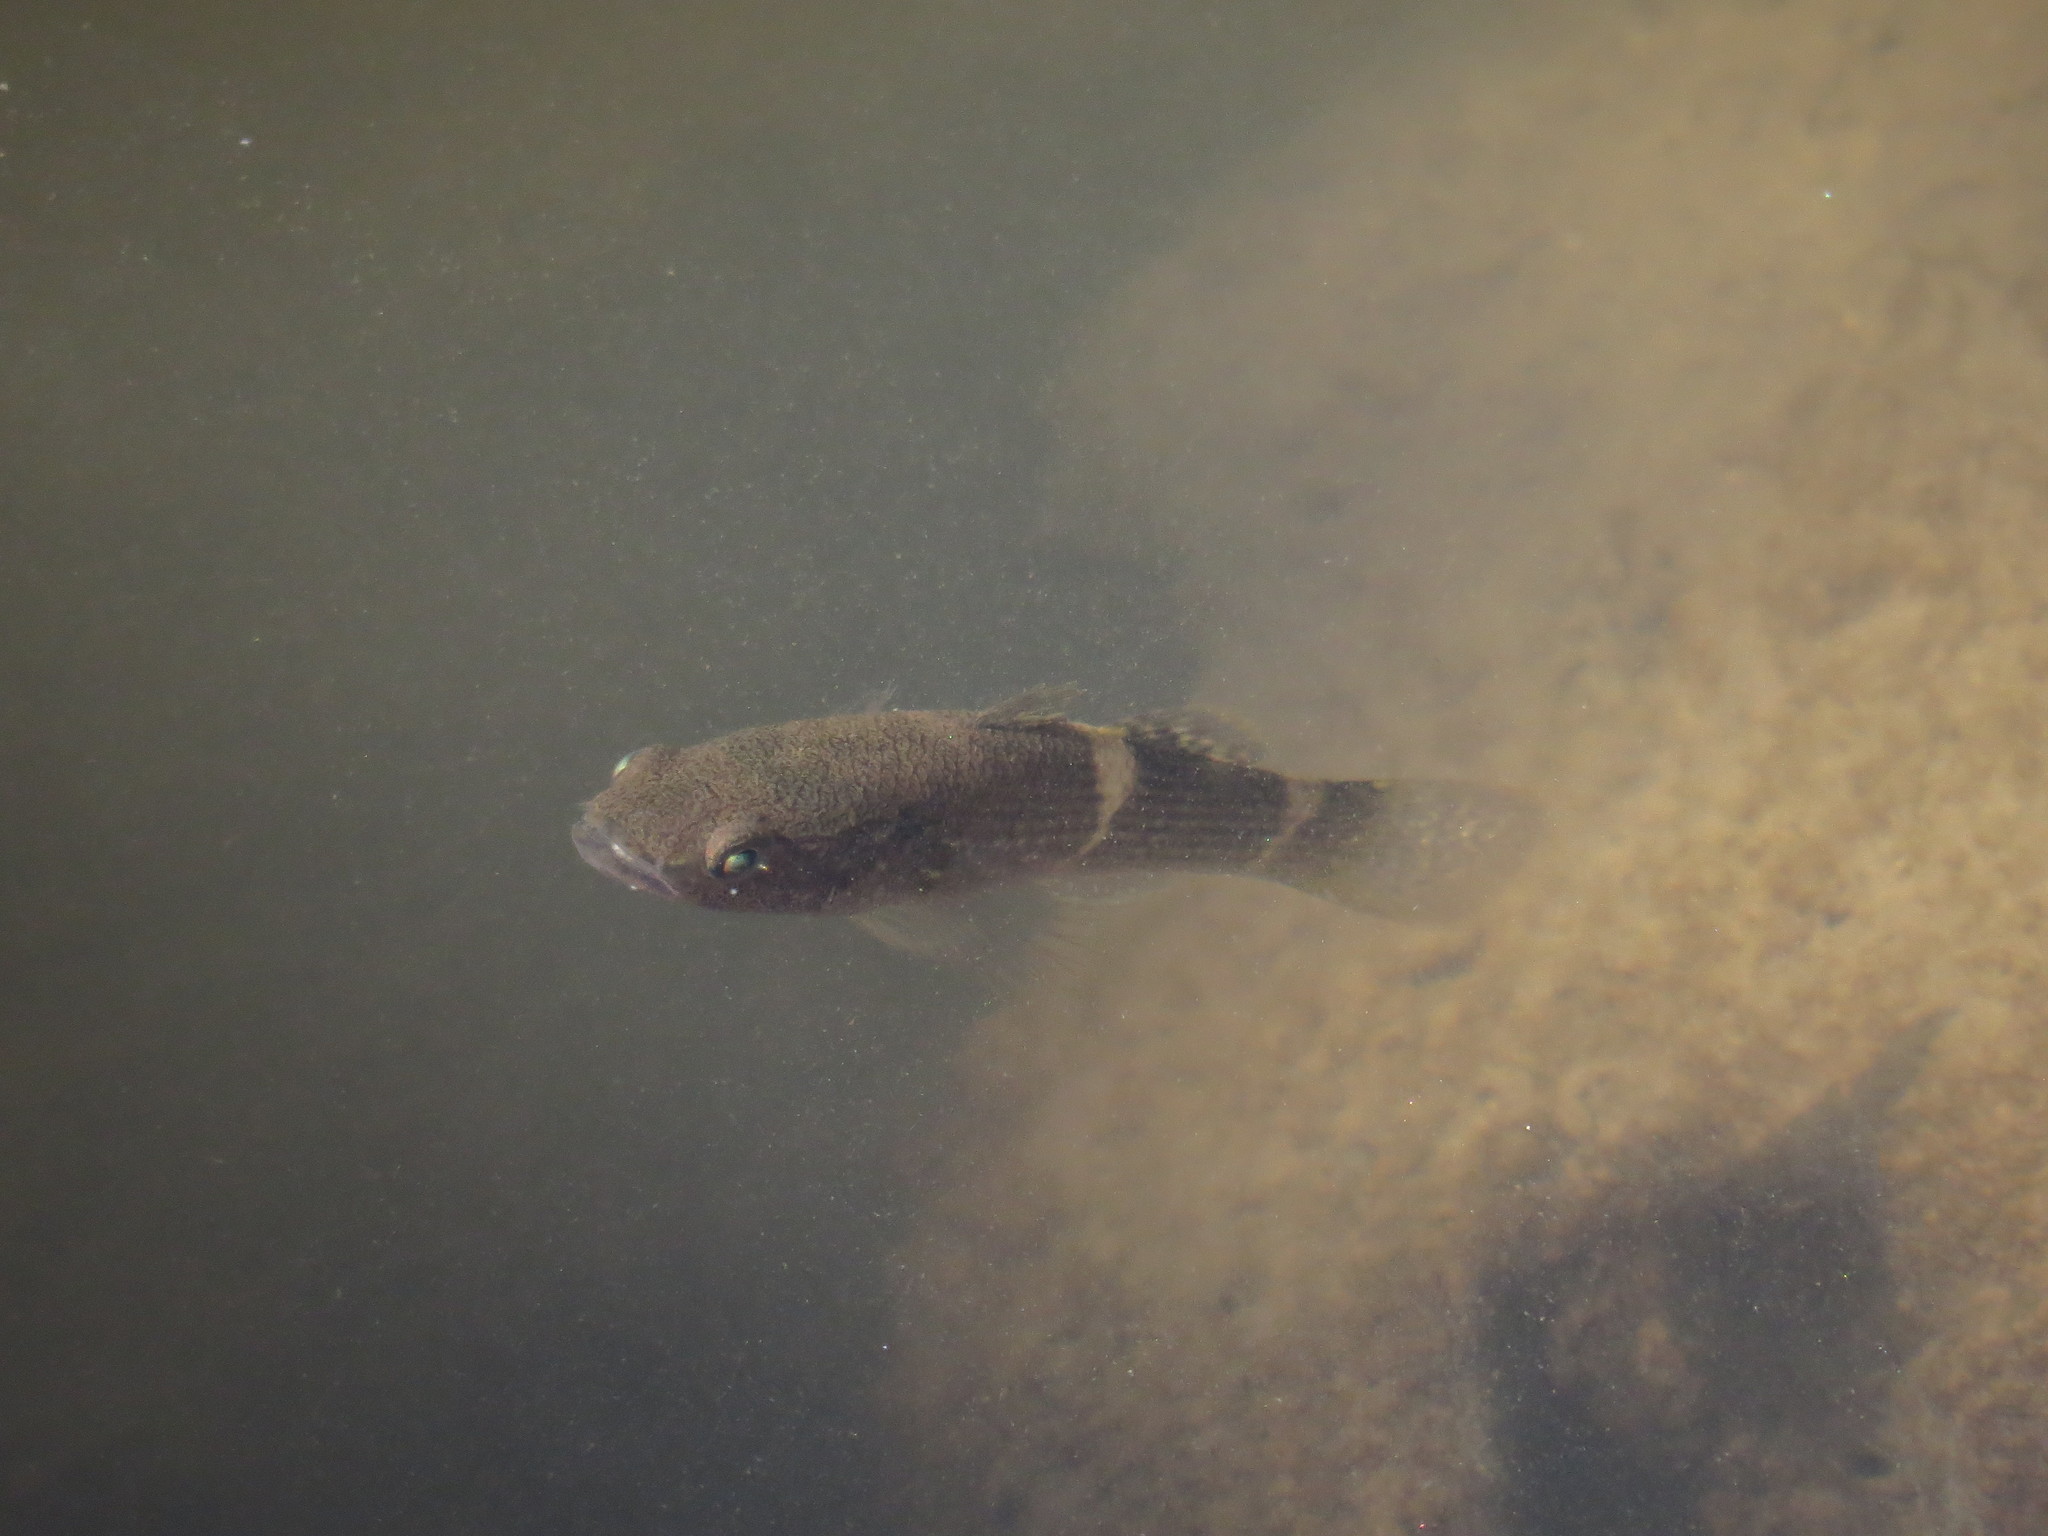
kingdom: Animalia
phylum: Chordata
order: Perciformes
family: Eleotridae
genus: Ophiocara
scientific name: Ophiocara porocephala
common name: Spangled gudgeon
